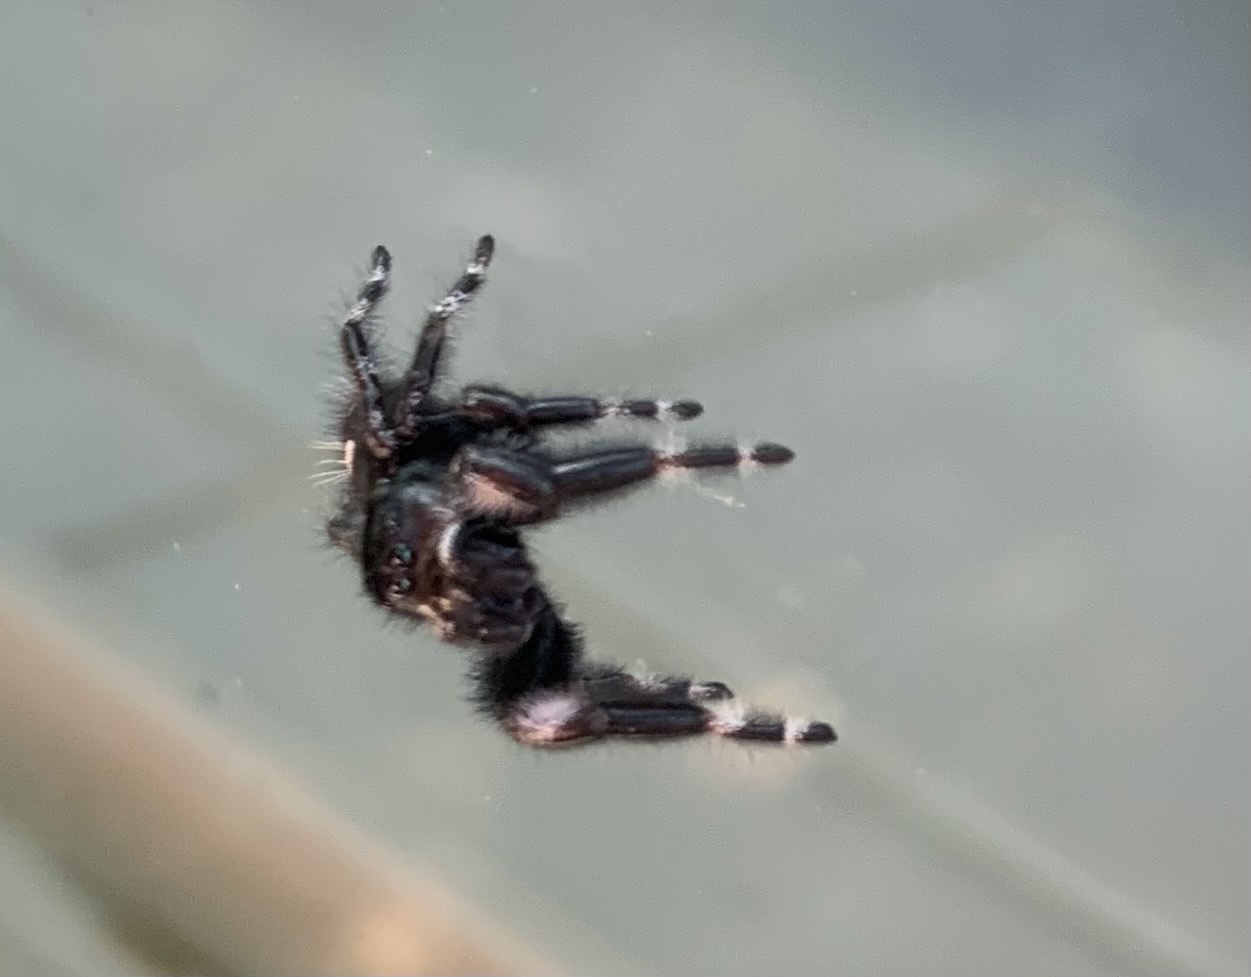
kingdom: Animalia
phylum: Arthropoda
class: Arachnida
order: Araneae
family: Salticidae
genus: Phidippus
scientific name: Phidippus audax
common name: Bold jumper
